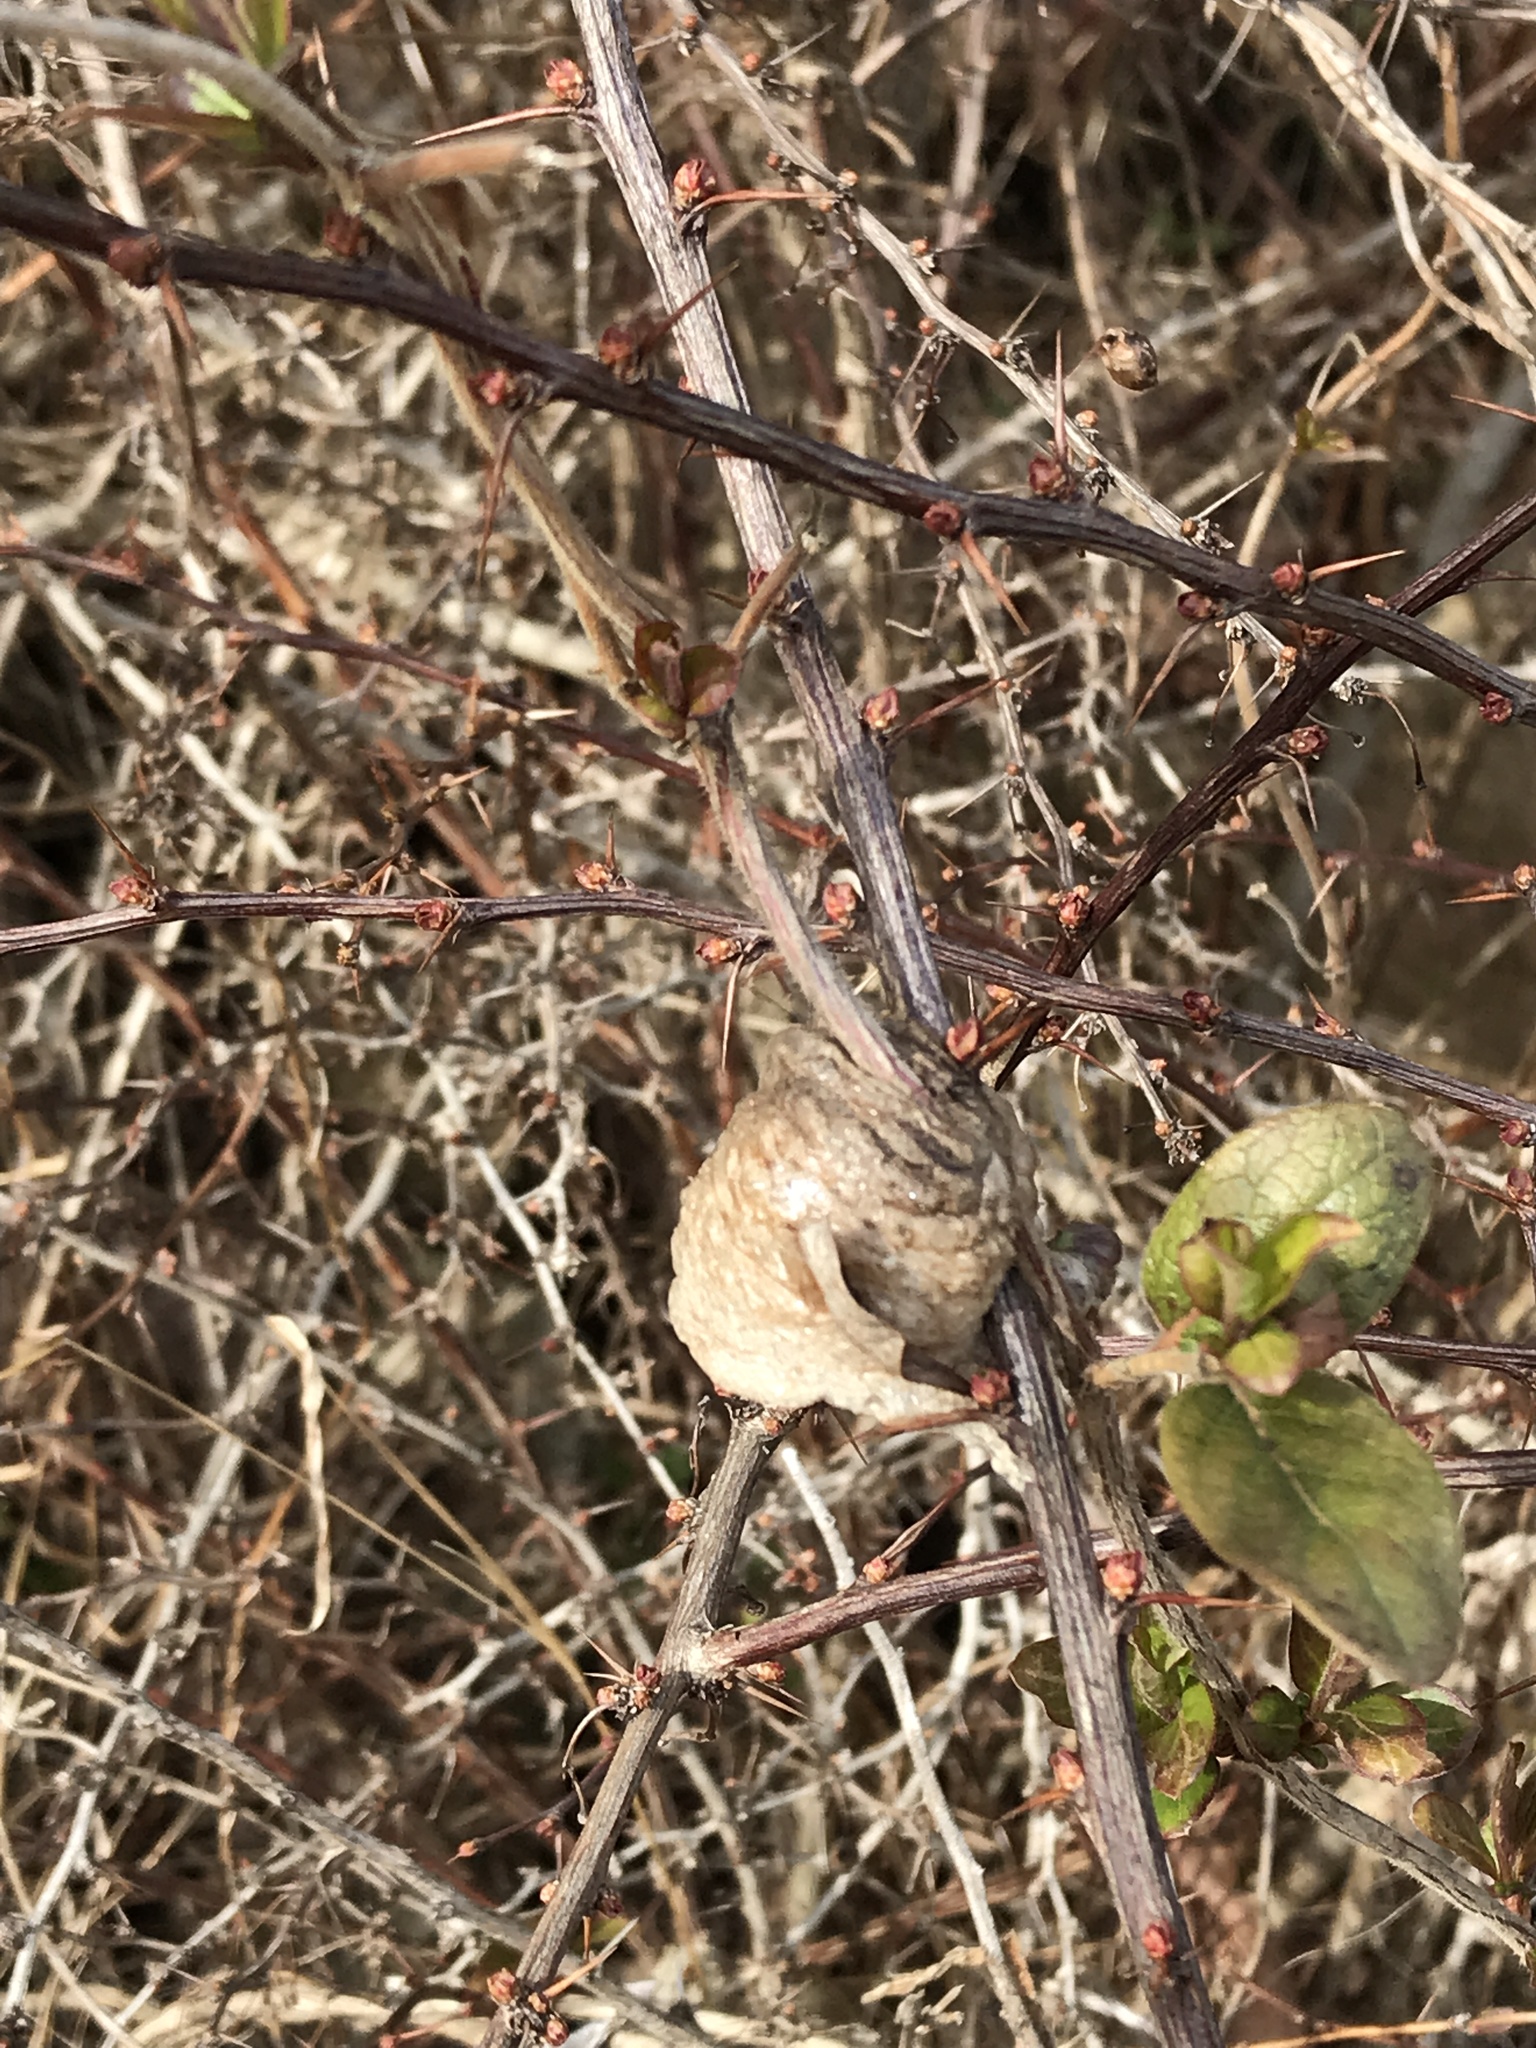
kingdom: Animalia
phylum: Arthropoda
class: Insecta
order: Mantodea
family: Mantidae
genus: Tenodera
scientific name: Tenodera sinensis
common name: Chinese mantis
